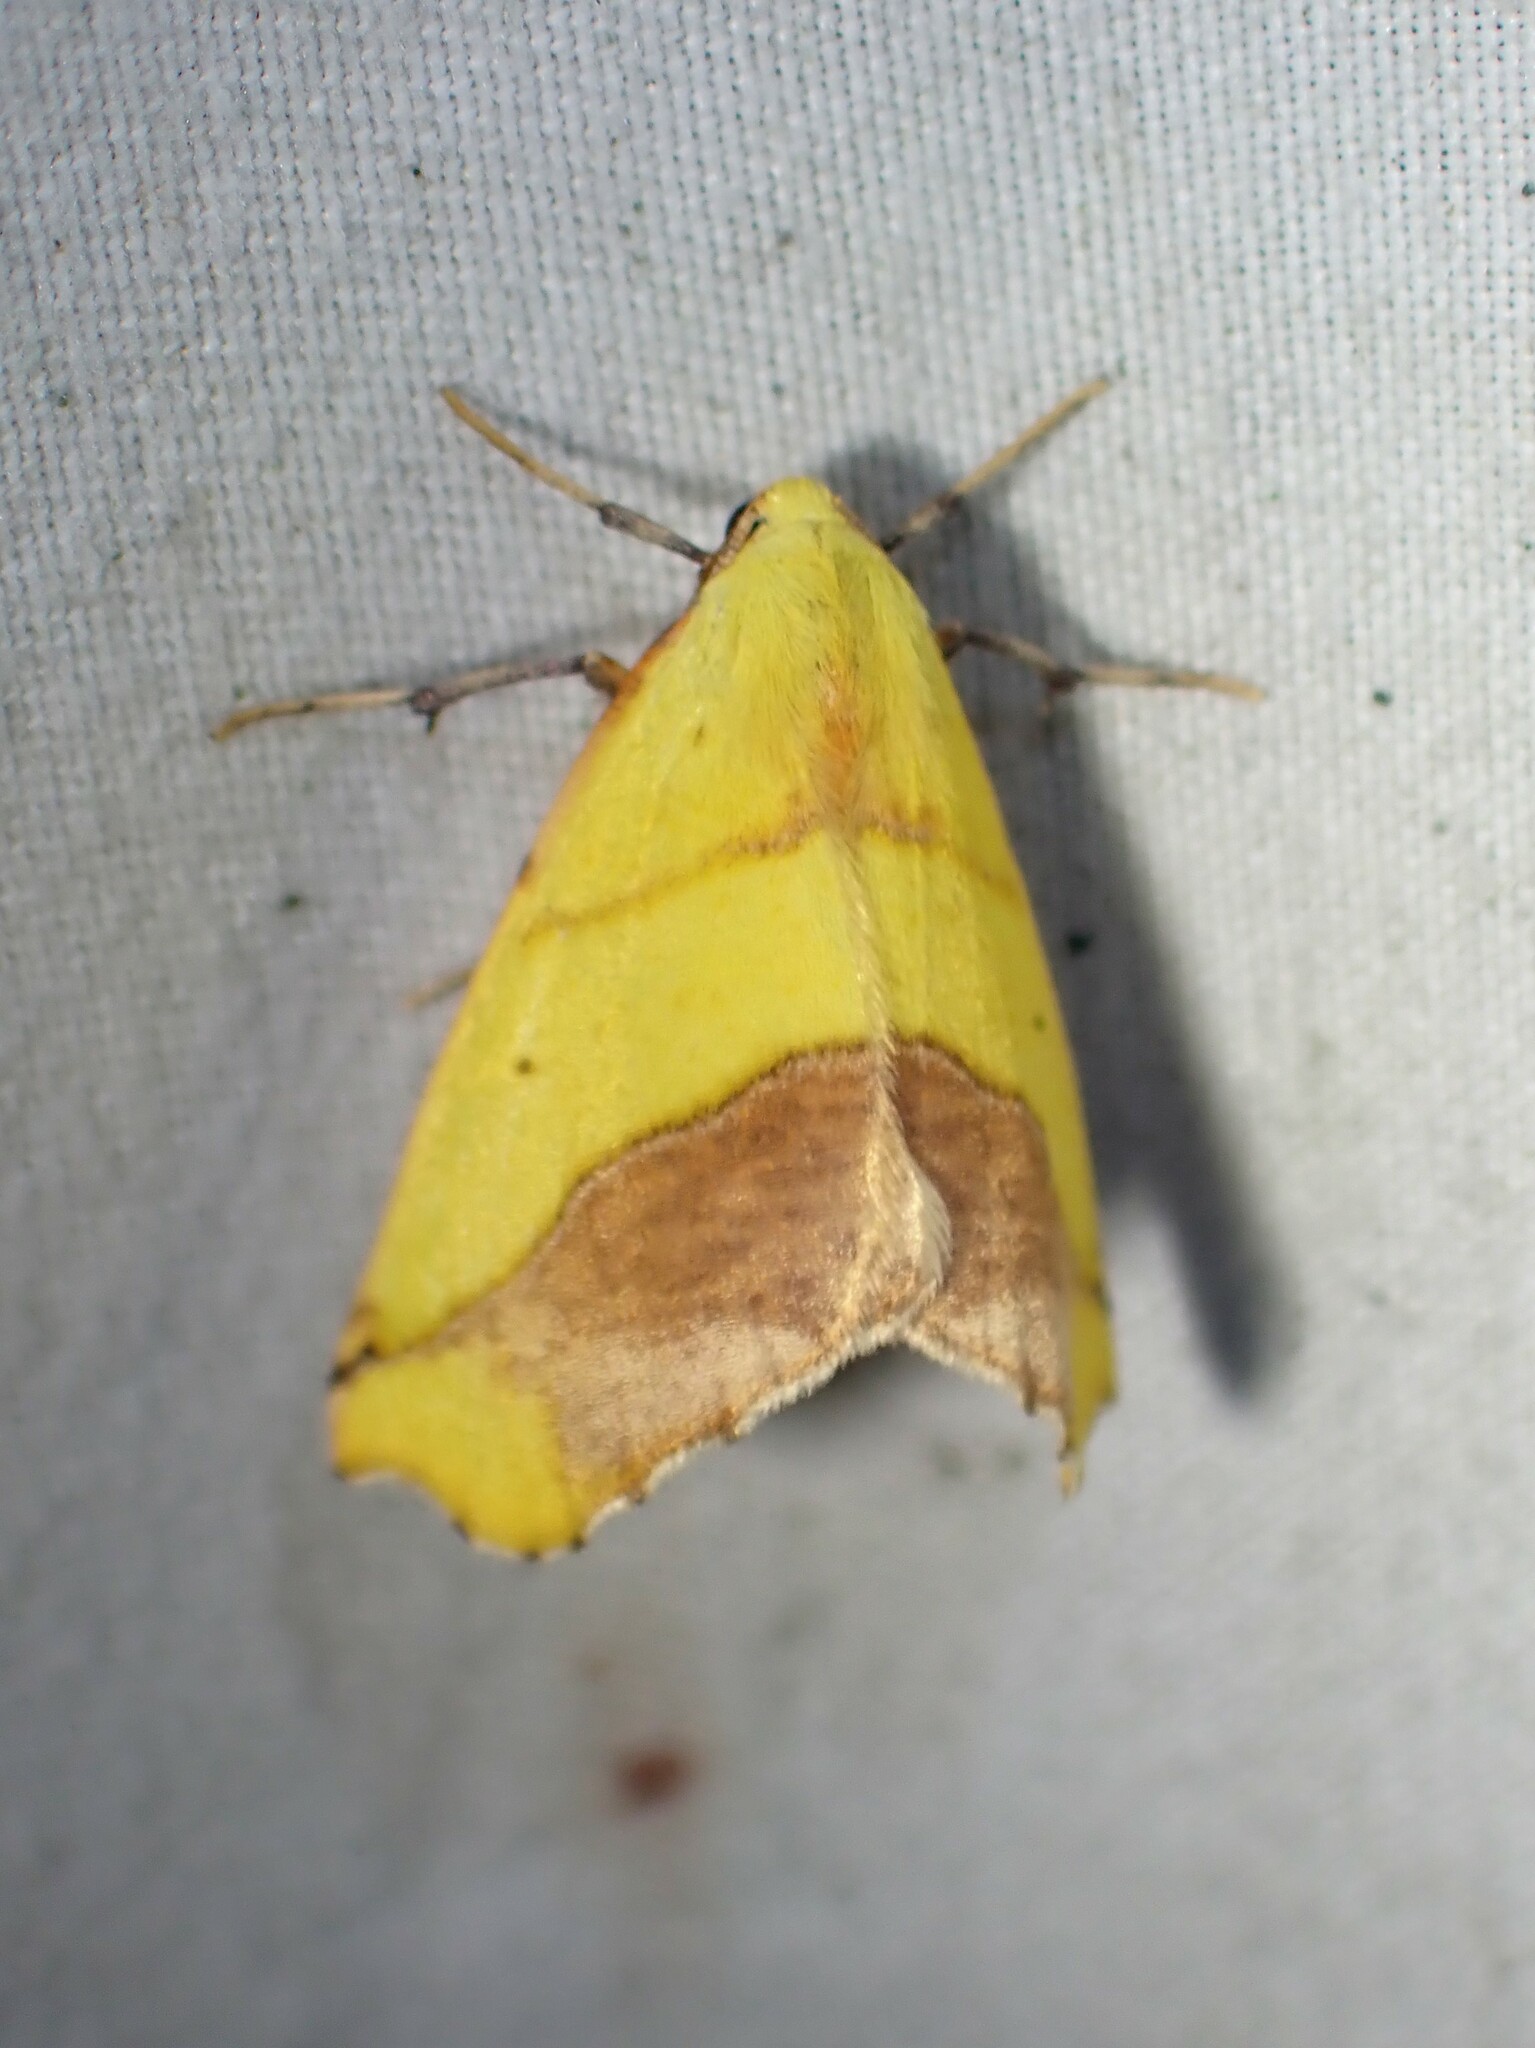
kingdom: Animalia
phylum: Arthropoda
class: Insecta
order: Lepidoptera
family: Geometridae
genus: Sicya
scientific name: Sicya macularia
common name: Sharp-lined yellow
